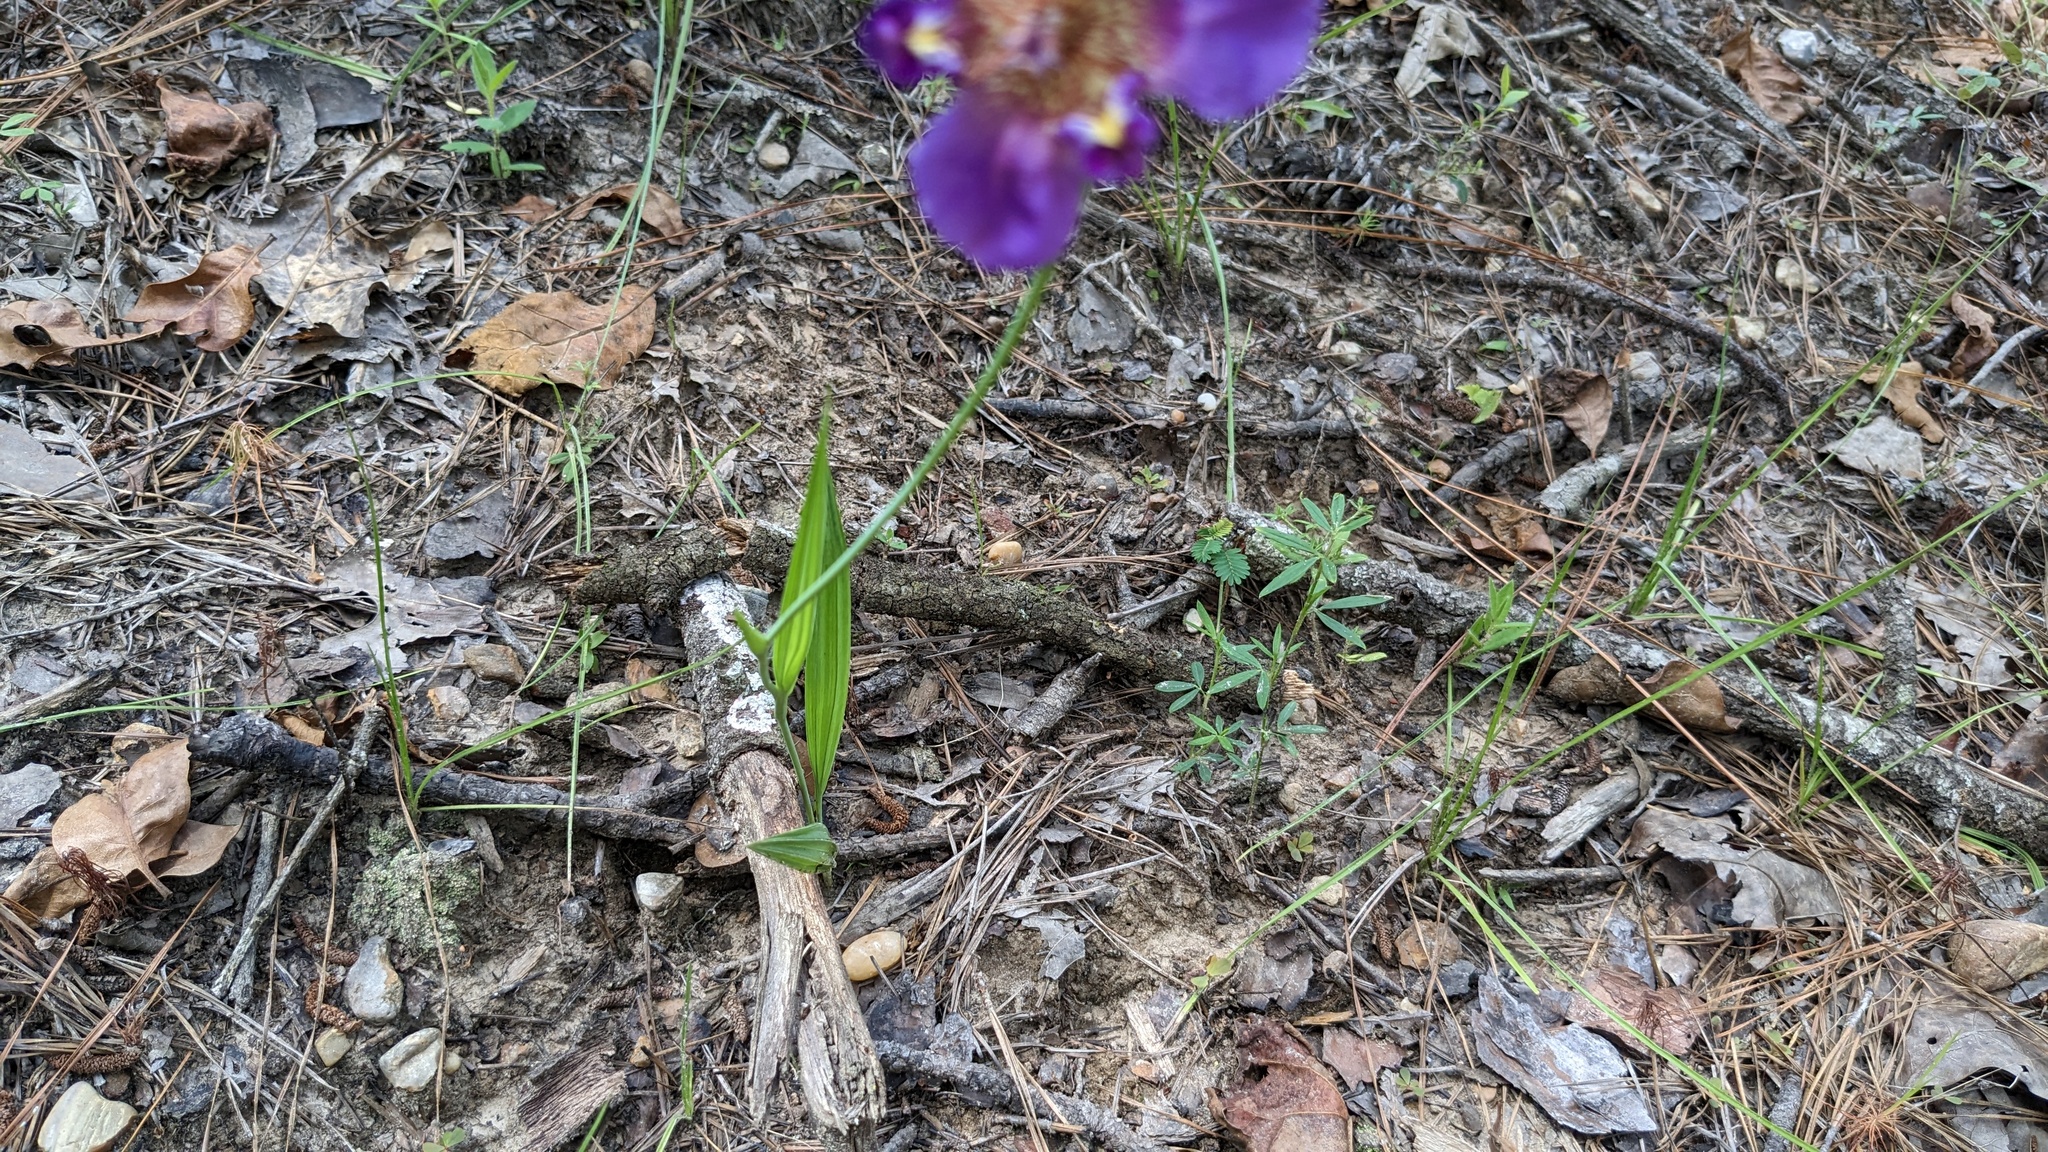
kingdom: Plantae
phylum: Tracheophyta
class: Liliopsida
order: Asparagales
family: Iridaceae
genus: Alophia
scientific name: Alophia drummondii
